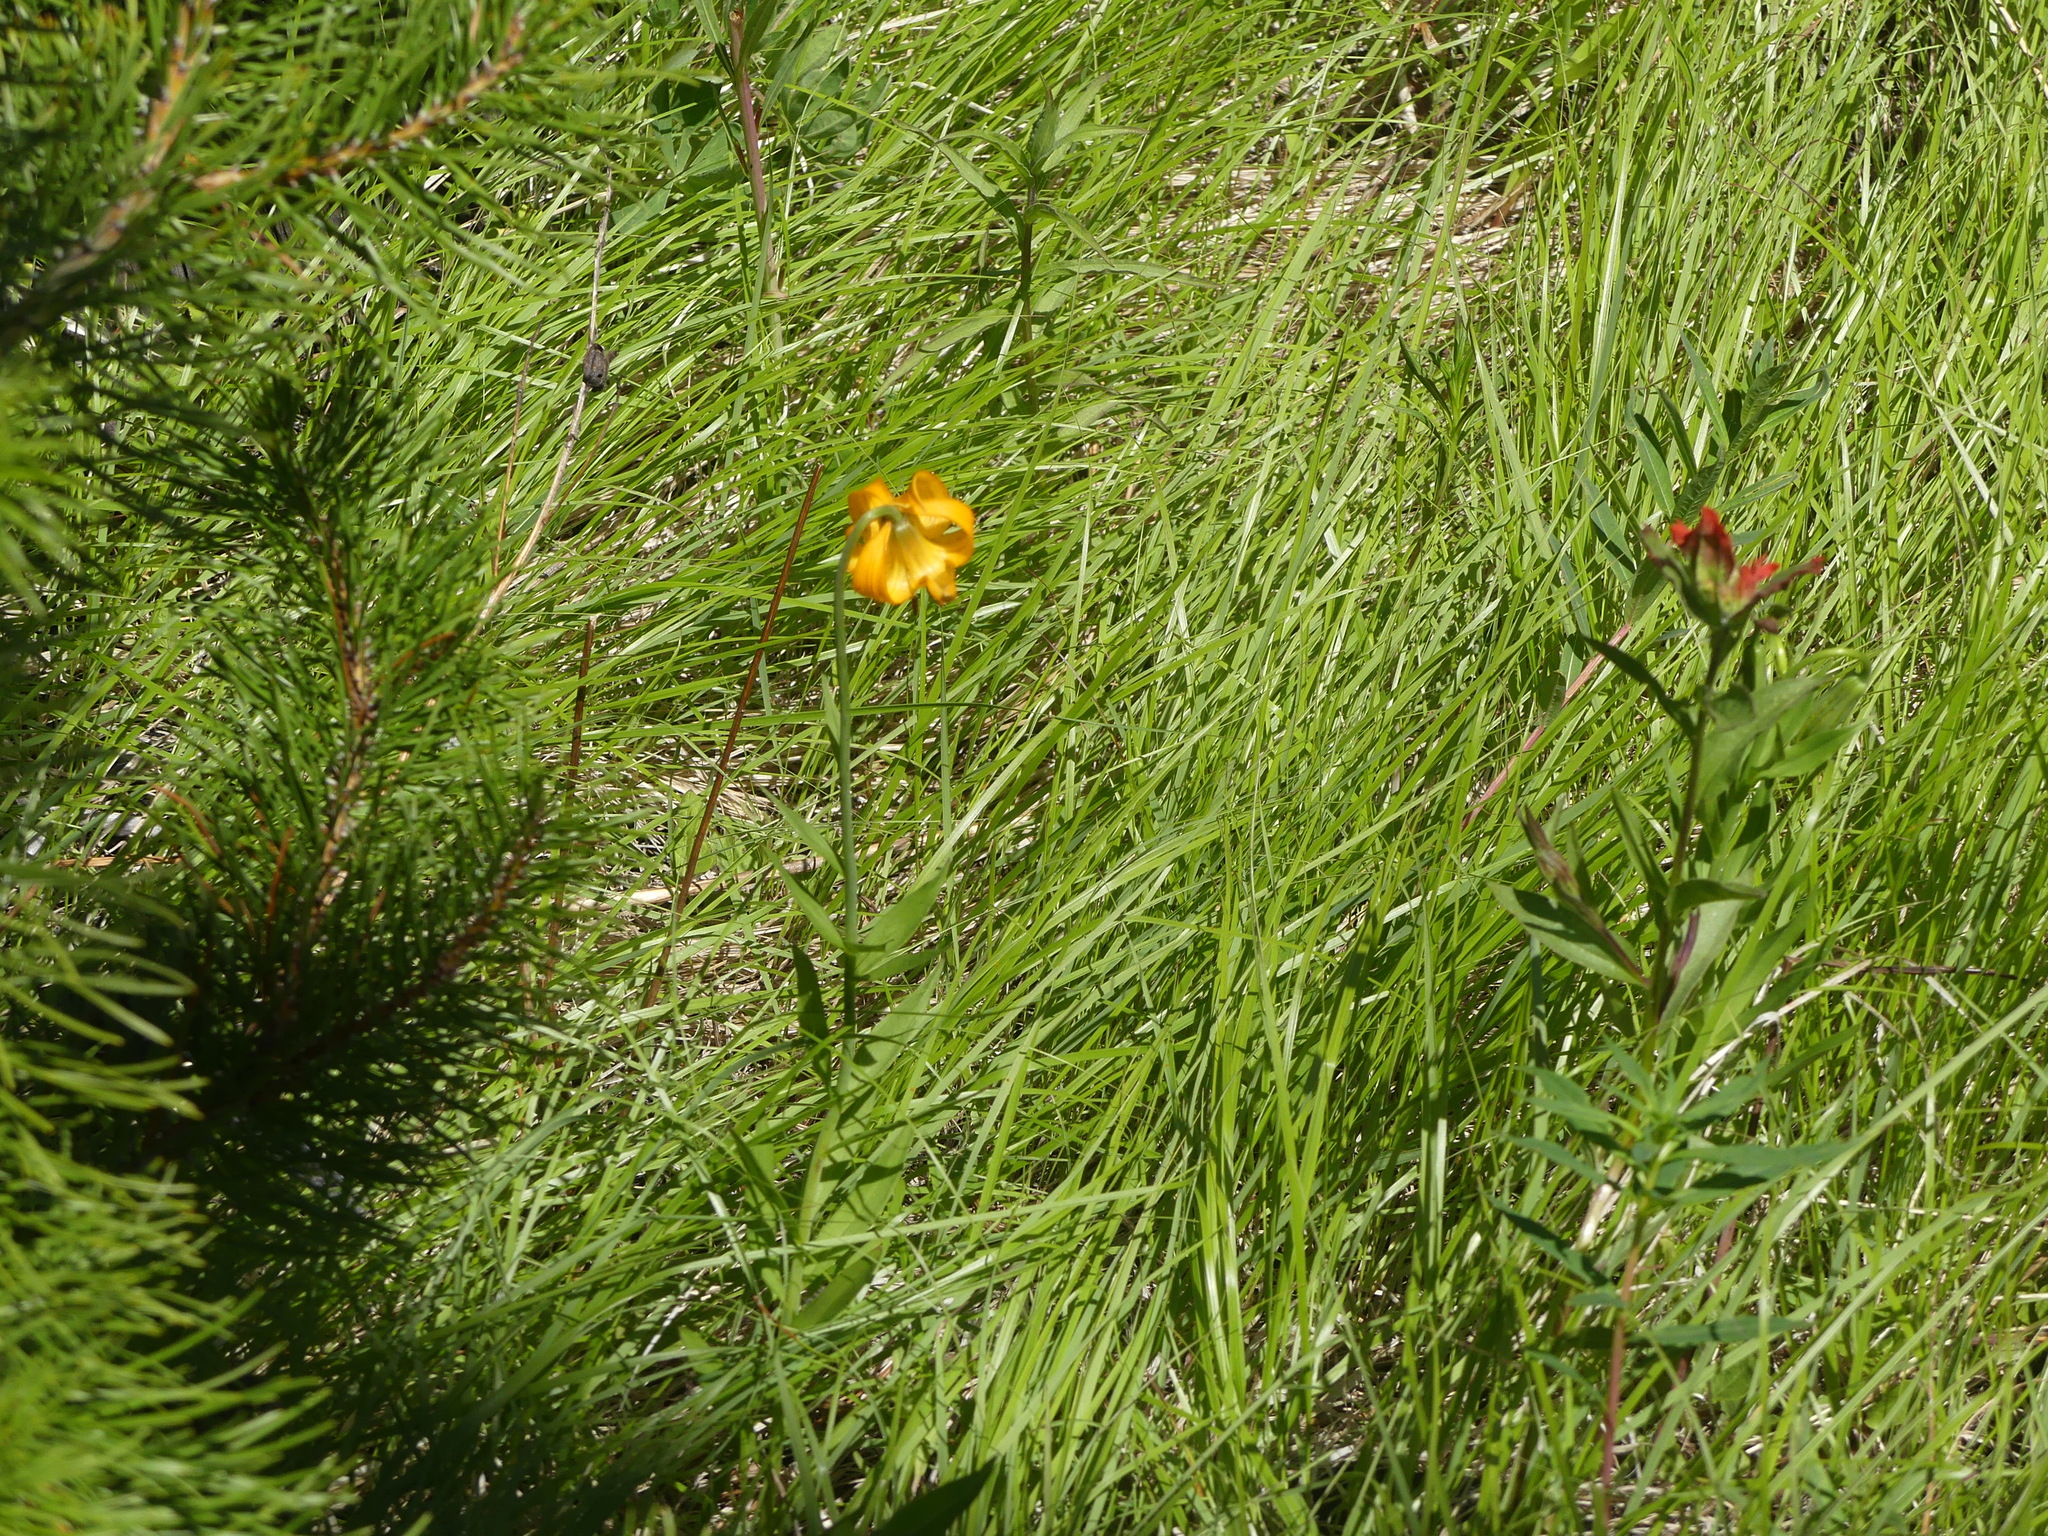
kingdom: Plantae
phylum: Tracheophyta
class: Liliopsida
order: Liliales
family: Liliaceae
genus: Lilium
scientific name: Lilium columbianum
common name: Columbia lily
